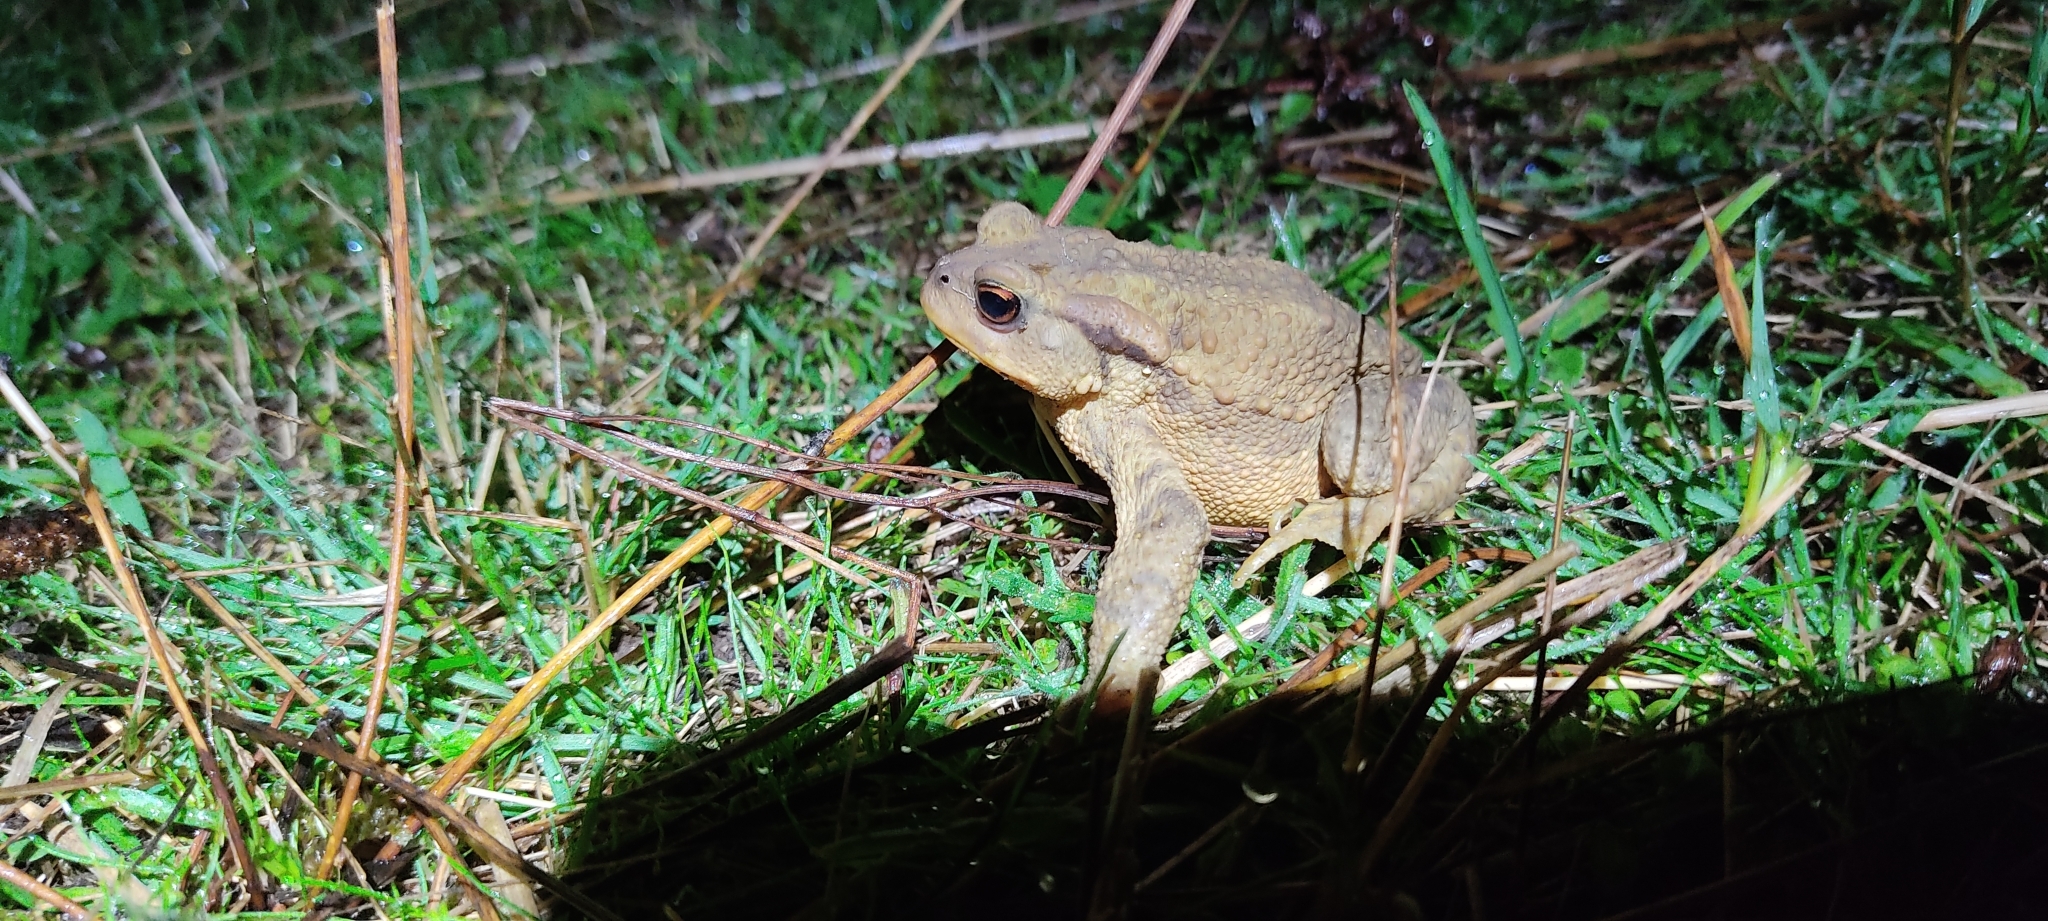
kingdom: Animalia
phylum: Chordata
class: Amphibia
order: Anura
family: Bufonidae
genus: Bufo
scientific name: Bufo spinosus
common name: Western common toad
